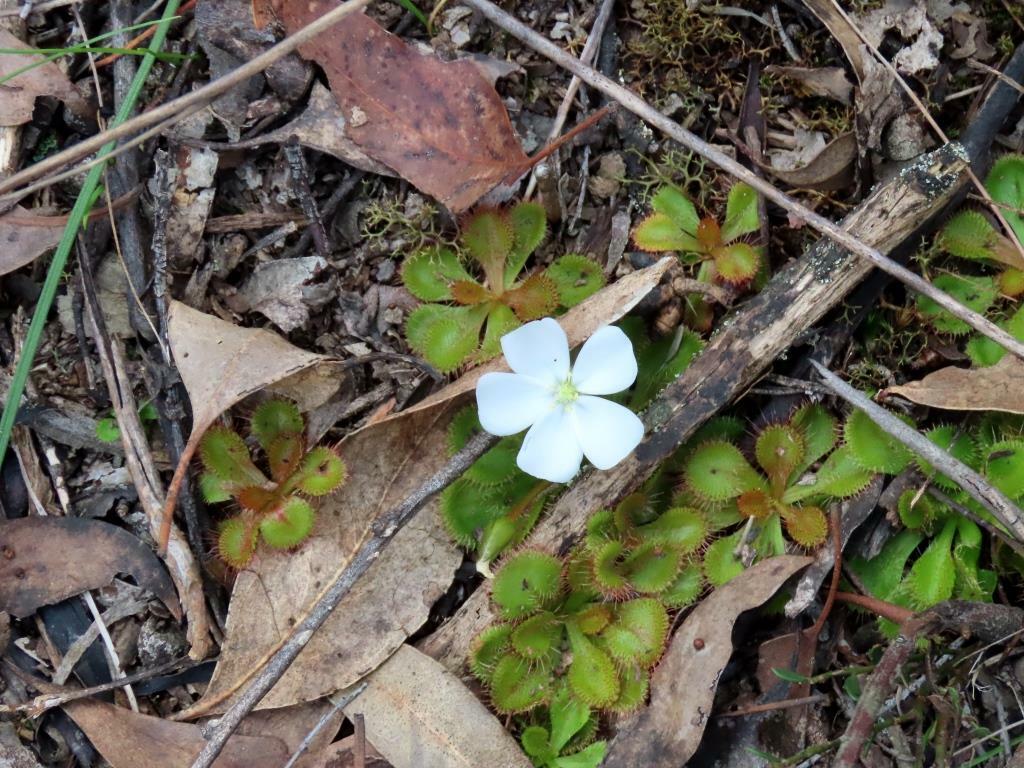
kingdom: Plantae
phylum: Tracheophyta
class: Magnoliopsida
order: Caryophyllales
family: Droseraceae
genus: Drosera
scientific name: Drosera aberrans
